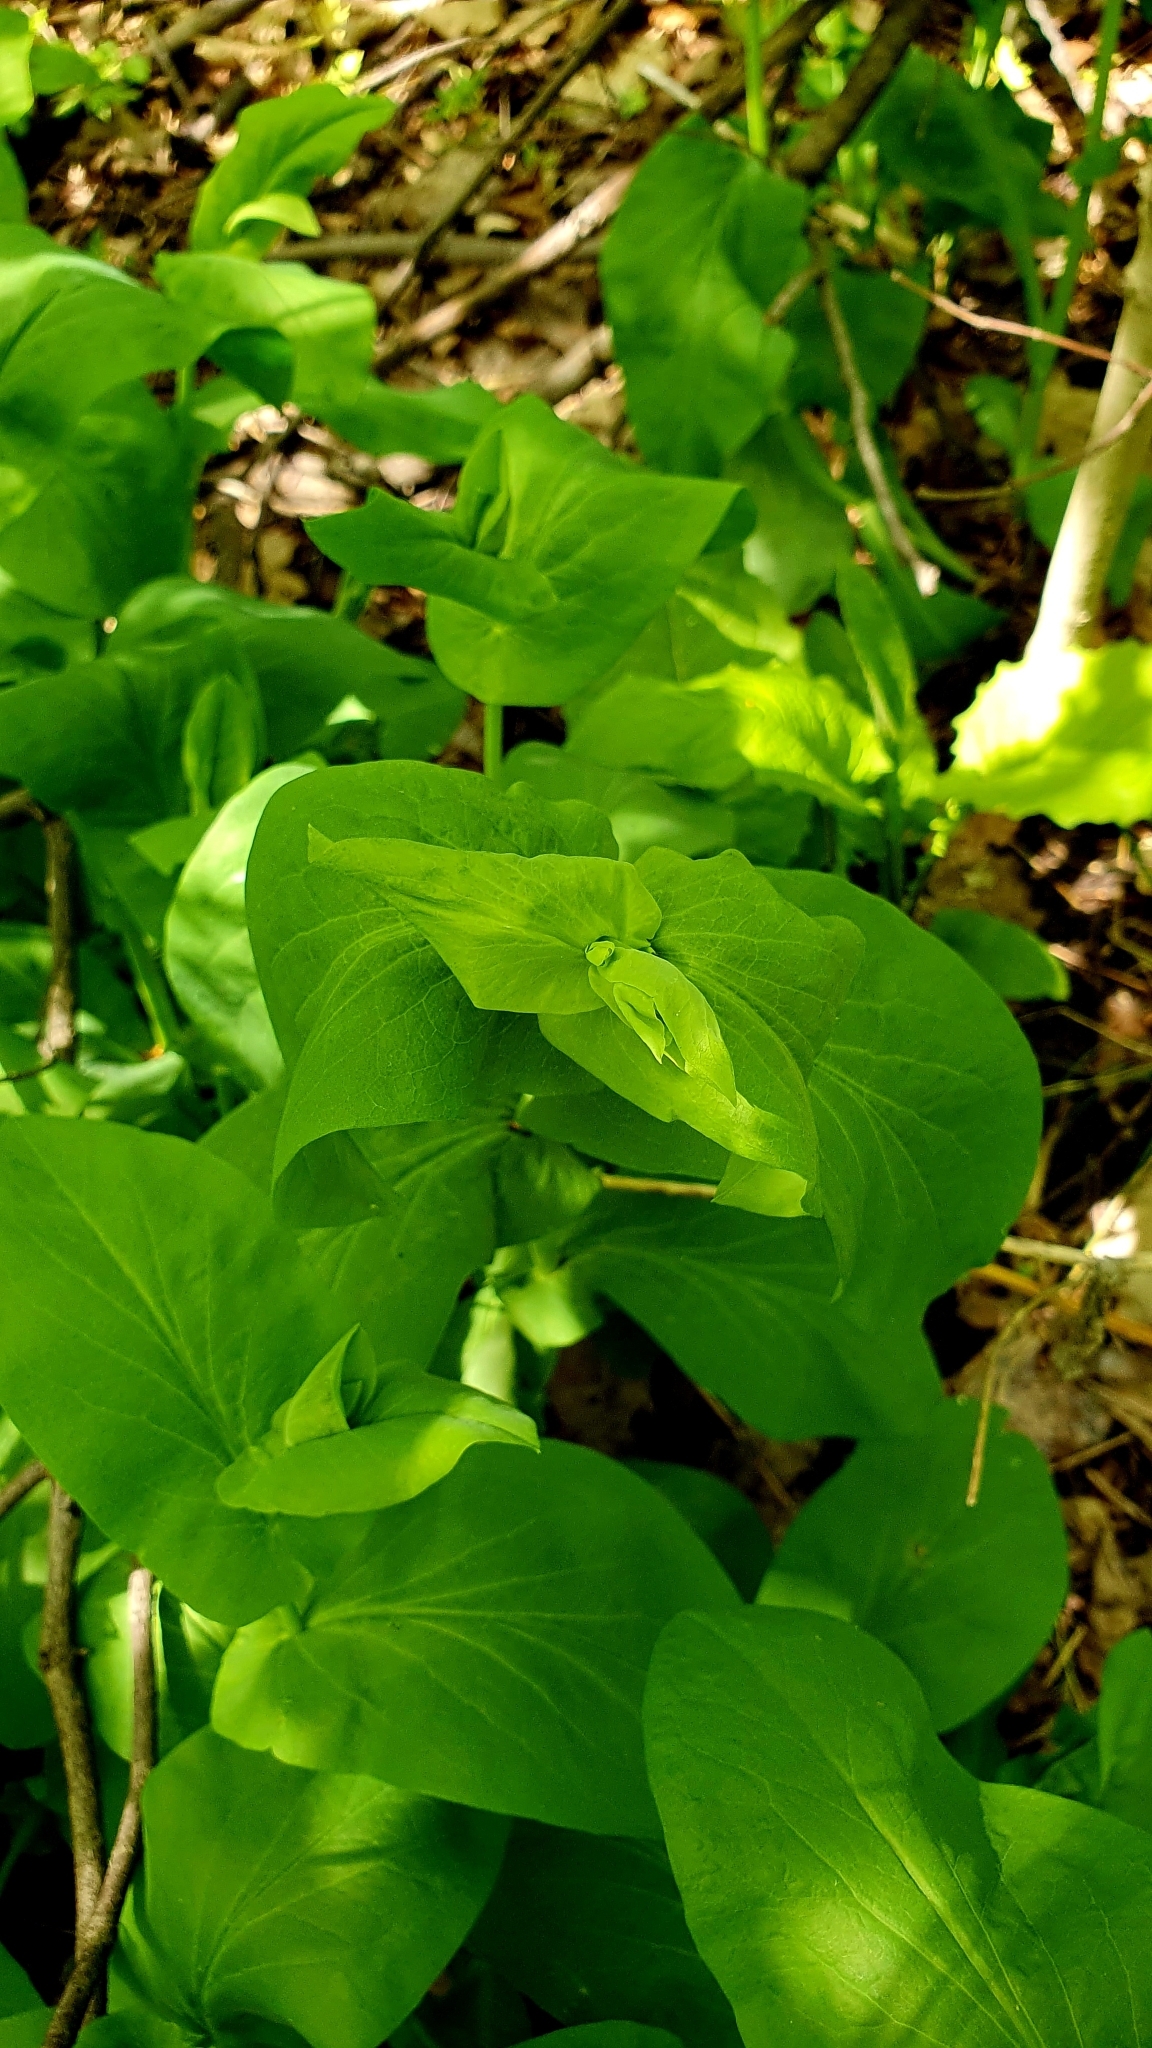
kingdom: Plantae
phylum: Tracheophyta
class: Magnoliopsida
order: Apiales
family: Apiaceae
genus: Bupleurum
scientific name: Bupleurum aureum
